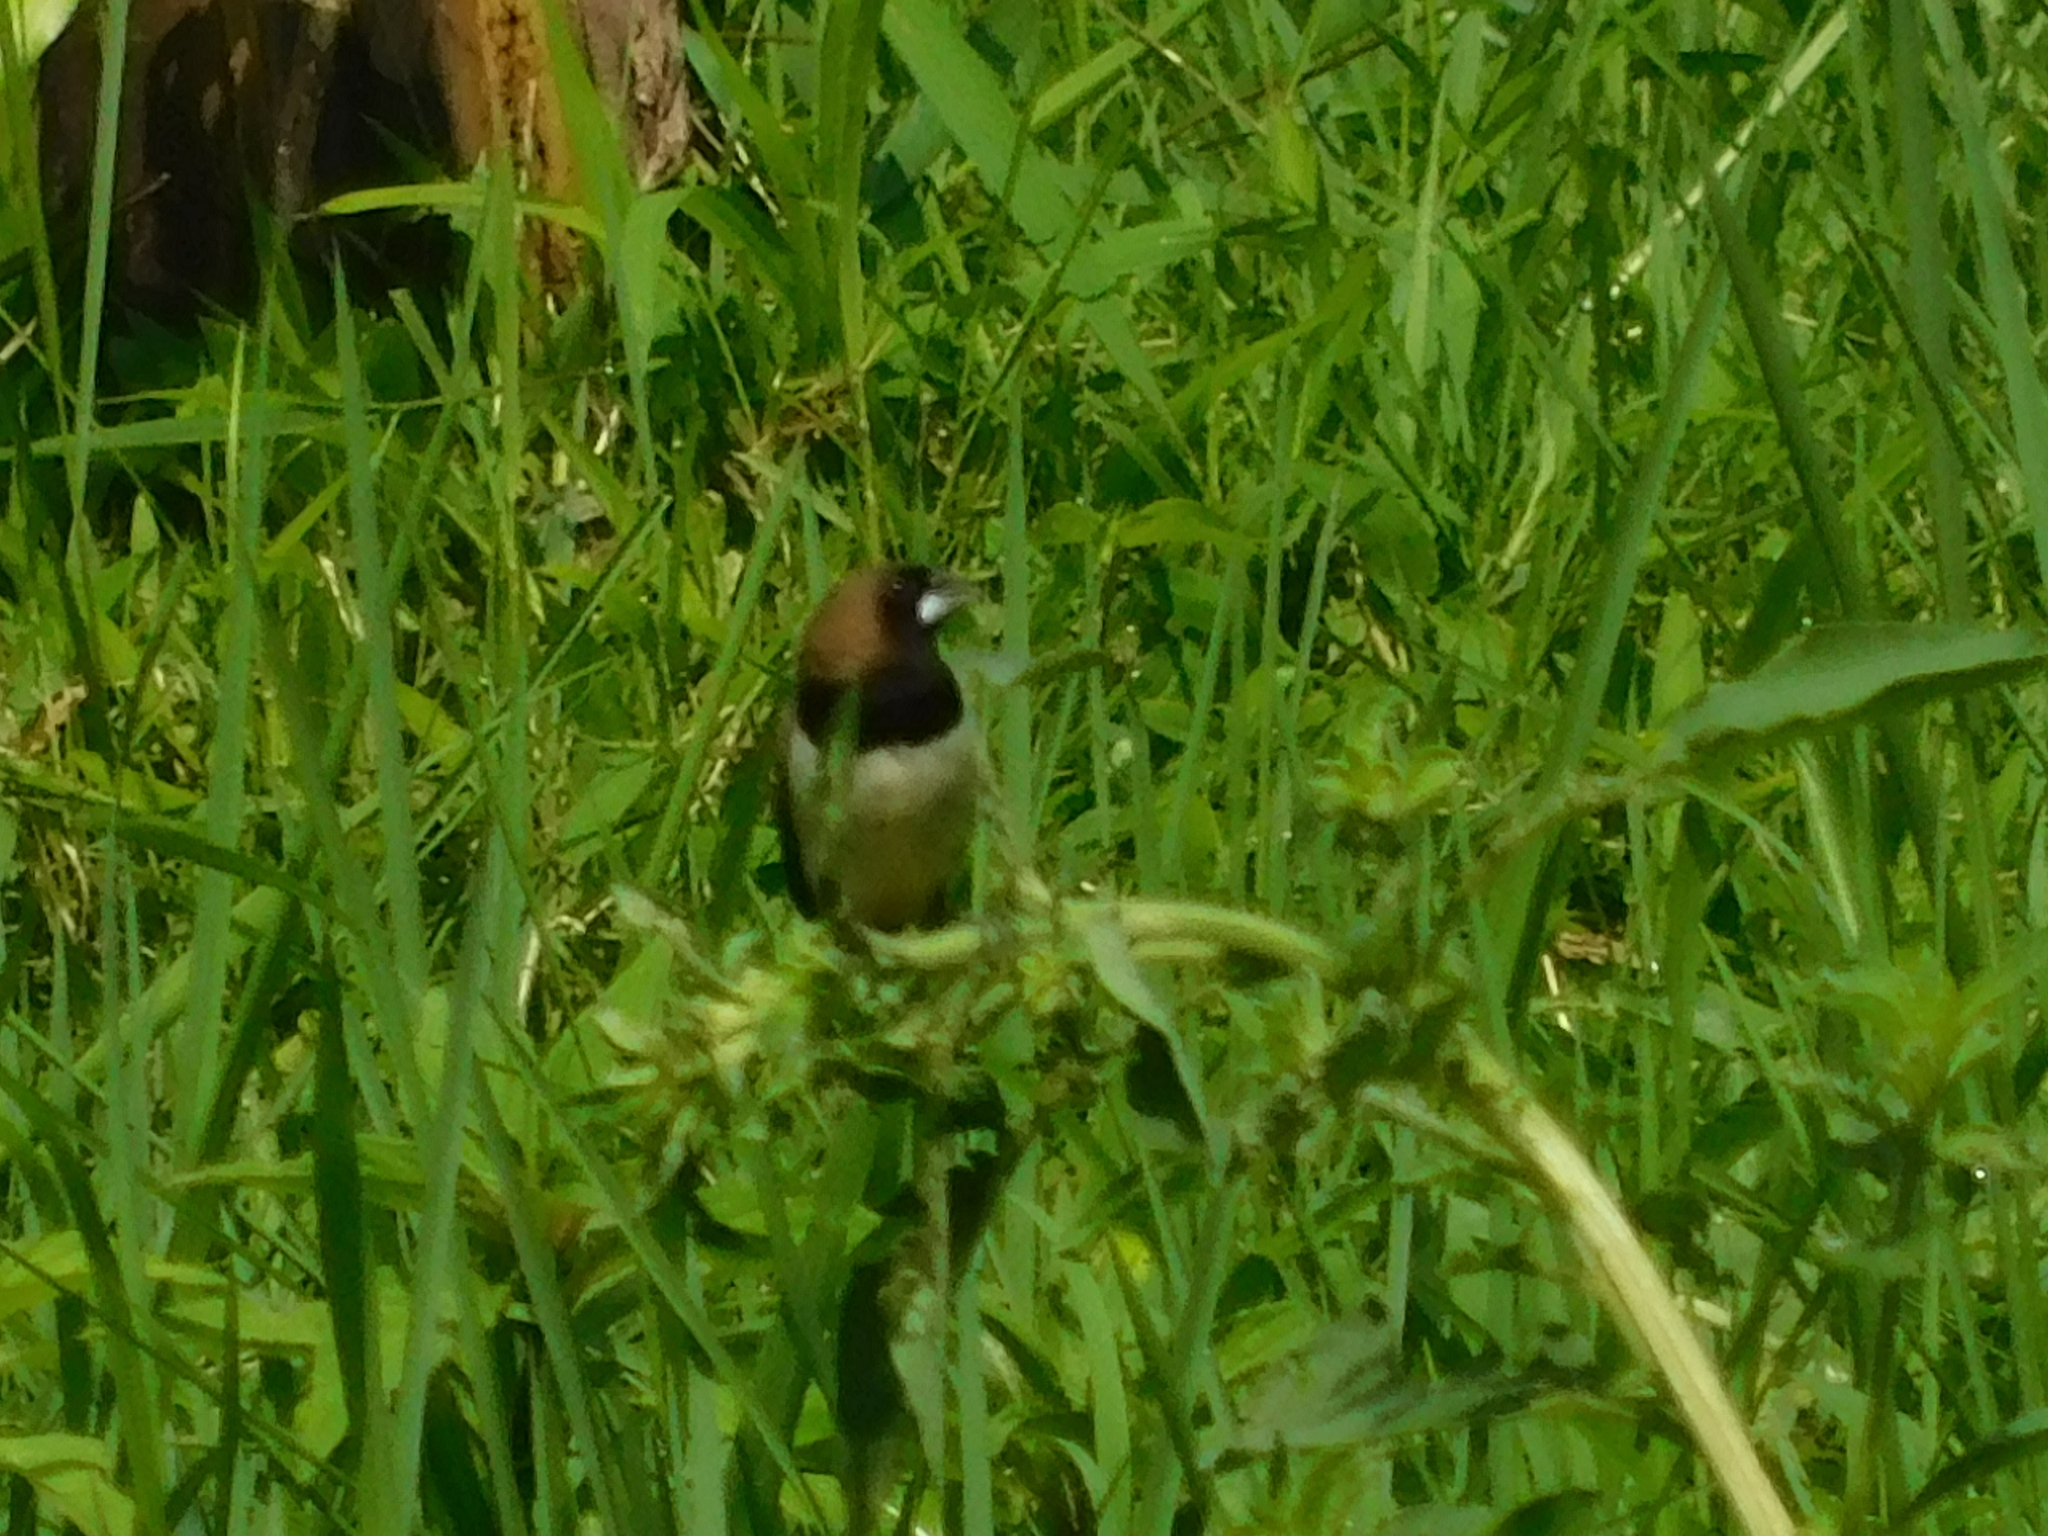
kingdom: Animalia
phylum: Chordata
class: Aves
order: Passeriformes
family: Estrildidae
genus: Lonchura
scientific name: Lonchura leucogastroides
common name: Javan munia
